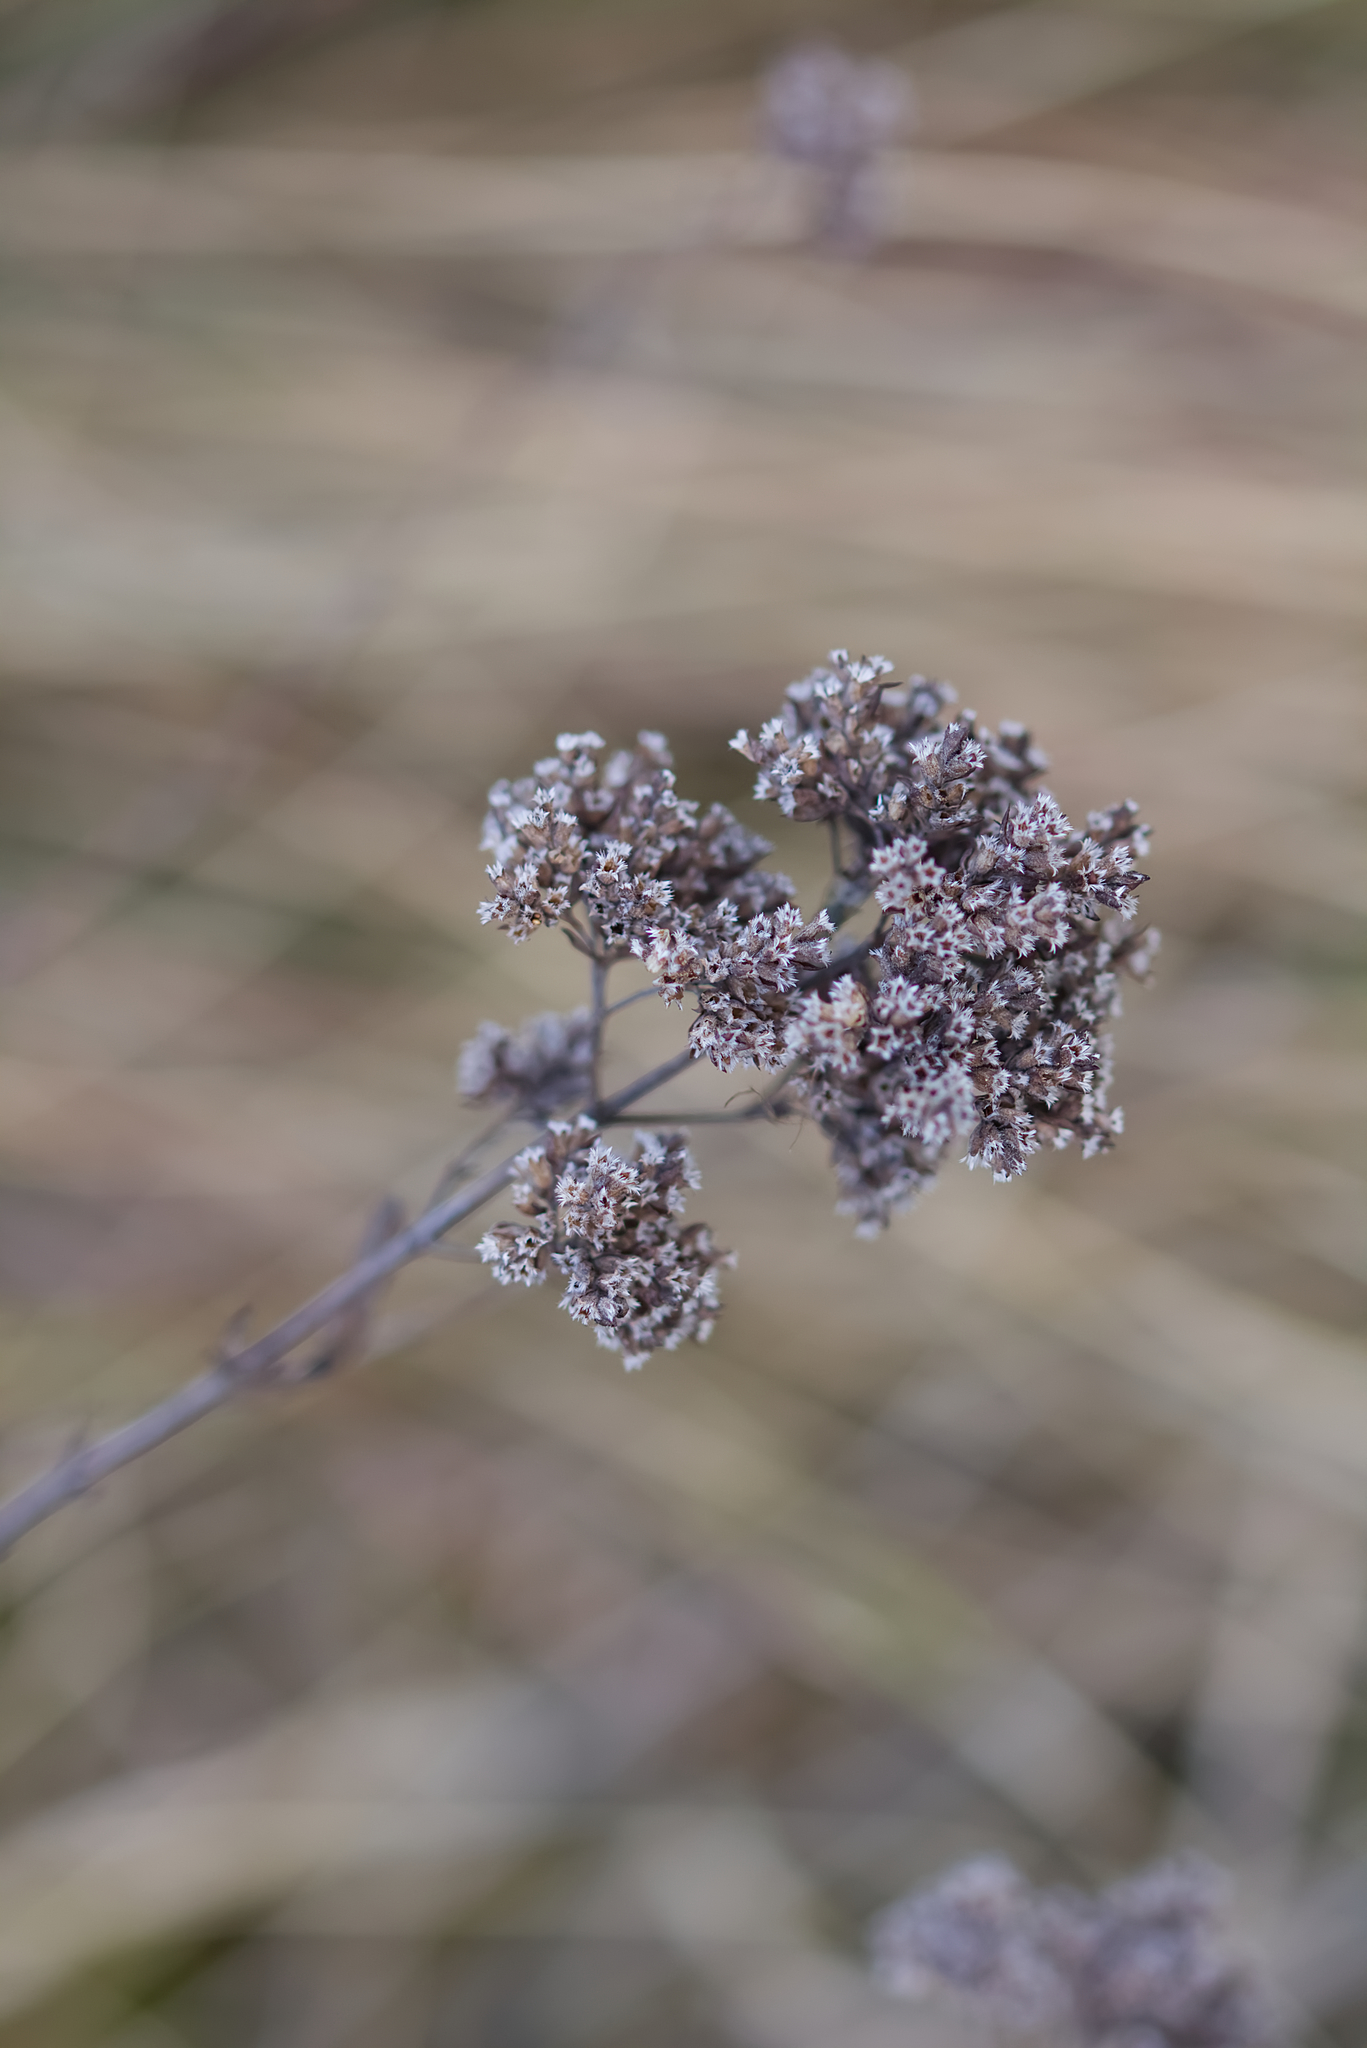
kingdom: Plantae
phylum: Tracheophyta
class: Magnoliopsida
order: Lamiales
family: Lamiaceae
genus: Origanum
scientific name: Origanum vulgare
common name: Wild marjoram
